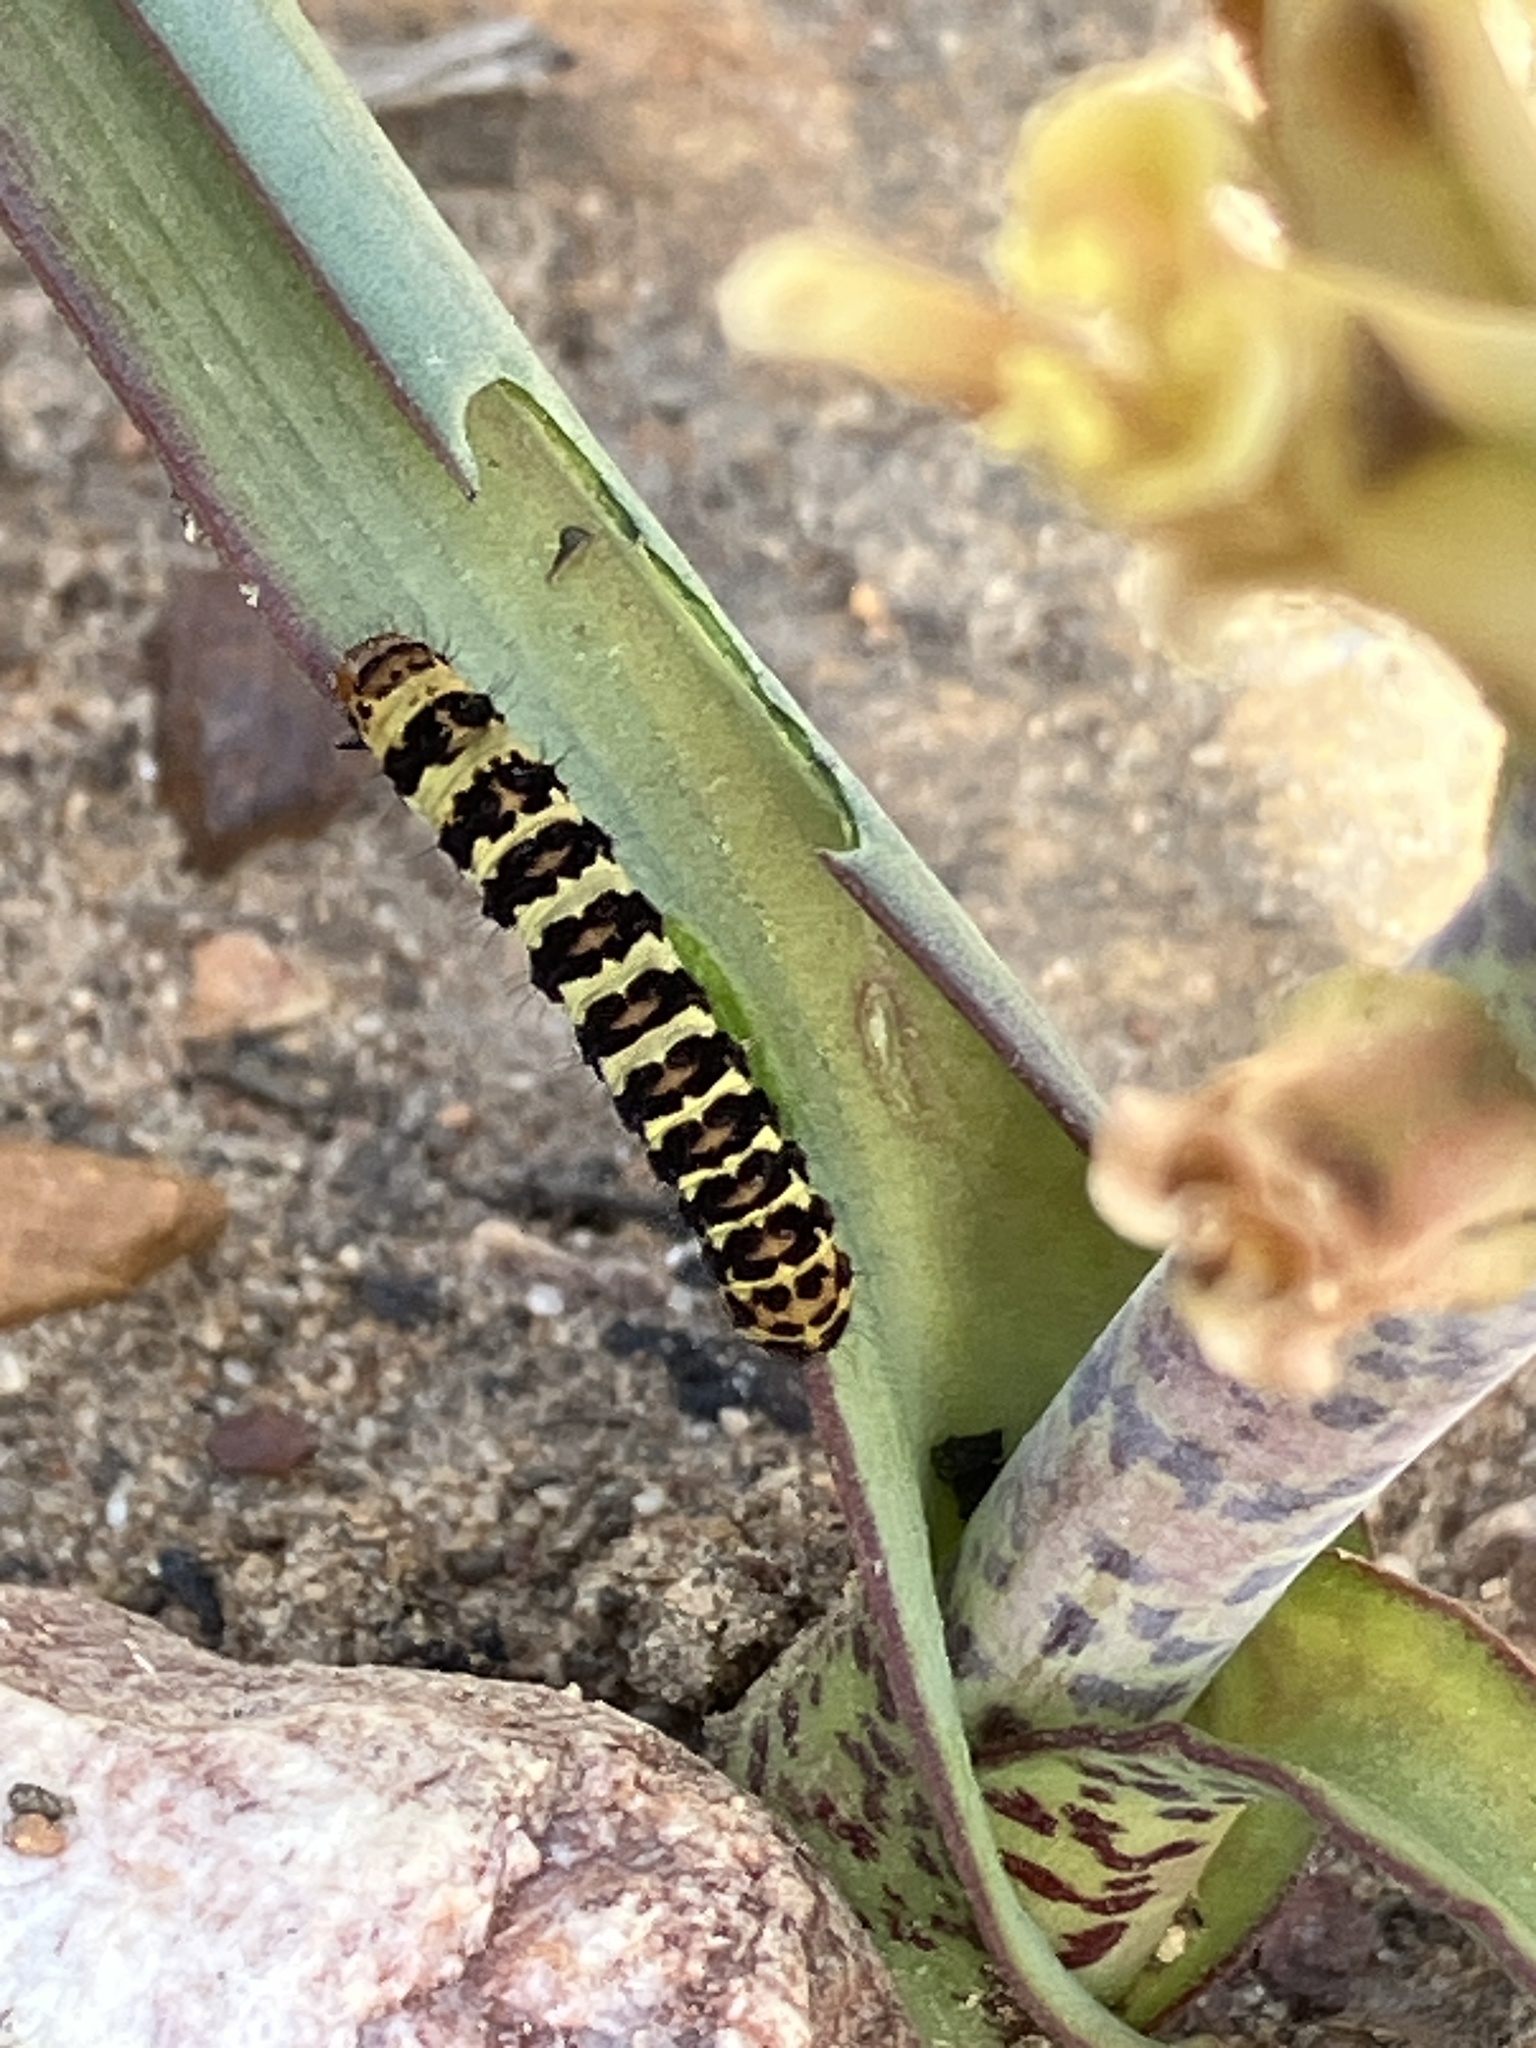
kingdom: Animalia
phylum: Arthropoda
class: Insecta
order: Lepidoptera
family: Noctuidae
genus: Diaphone
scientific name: Diaphone eumela
